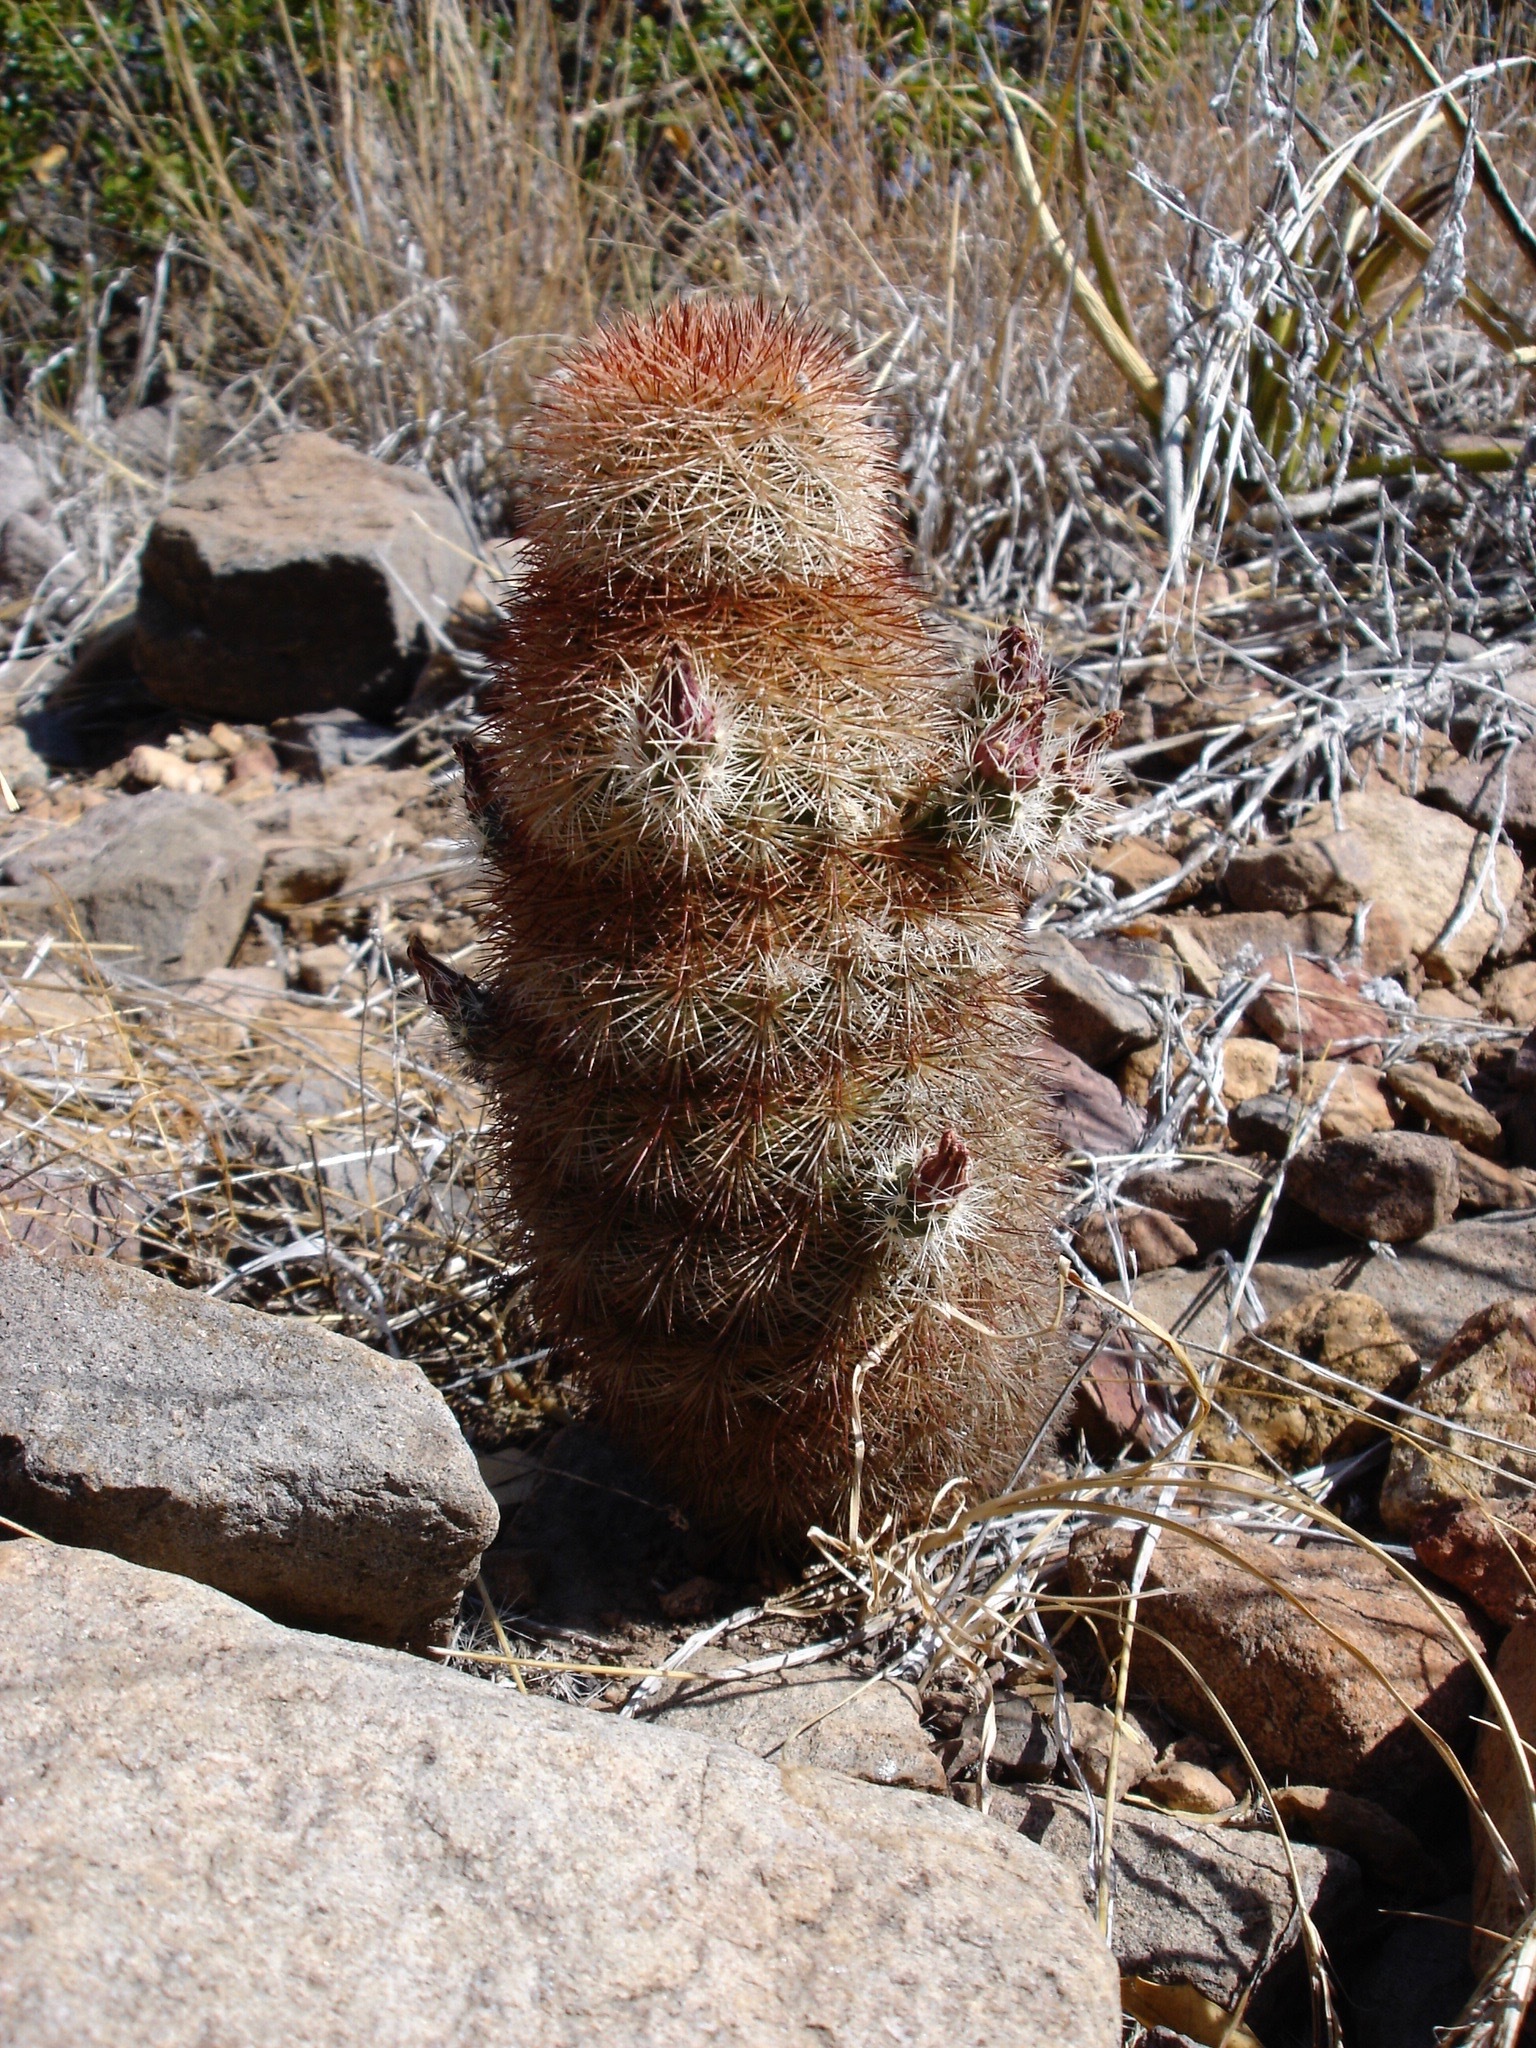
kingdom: Plantae
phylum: Tracheophyta
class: Magnoliopsida
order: Caryophyllales
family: Cactaceae
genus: Echinocereus
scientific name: Echinocereus russanthus
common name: Brownspine hedgehog cactus
